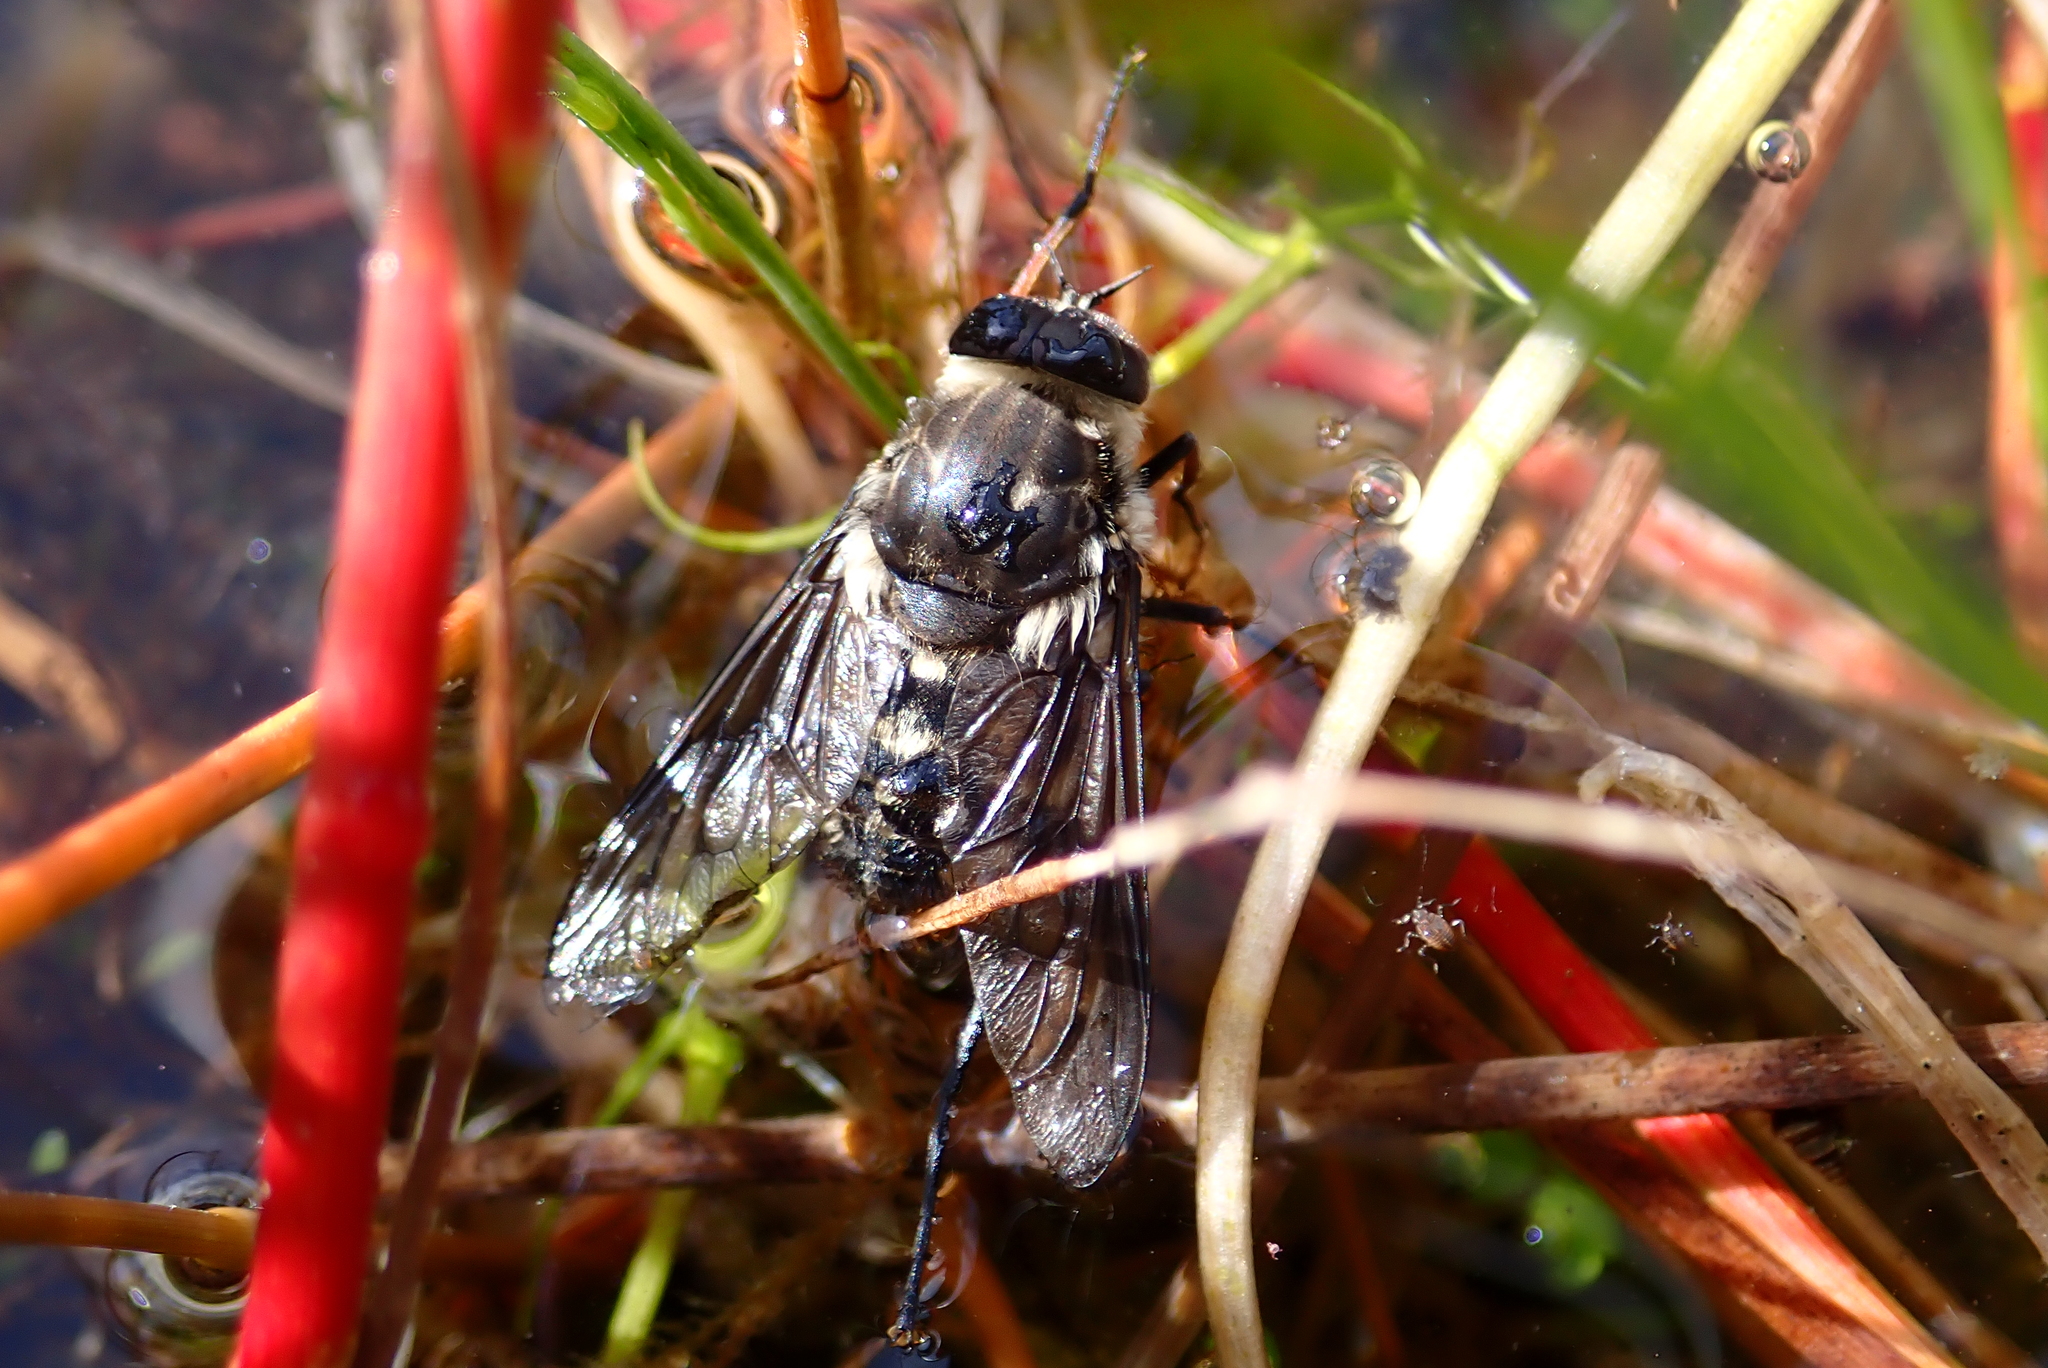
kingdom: Animalia
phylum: Arthropoda
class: Insecta
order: Diptera
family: Tabanidae
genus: Scaptia
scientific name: Scaptia
